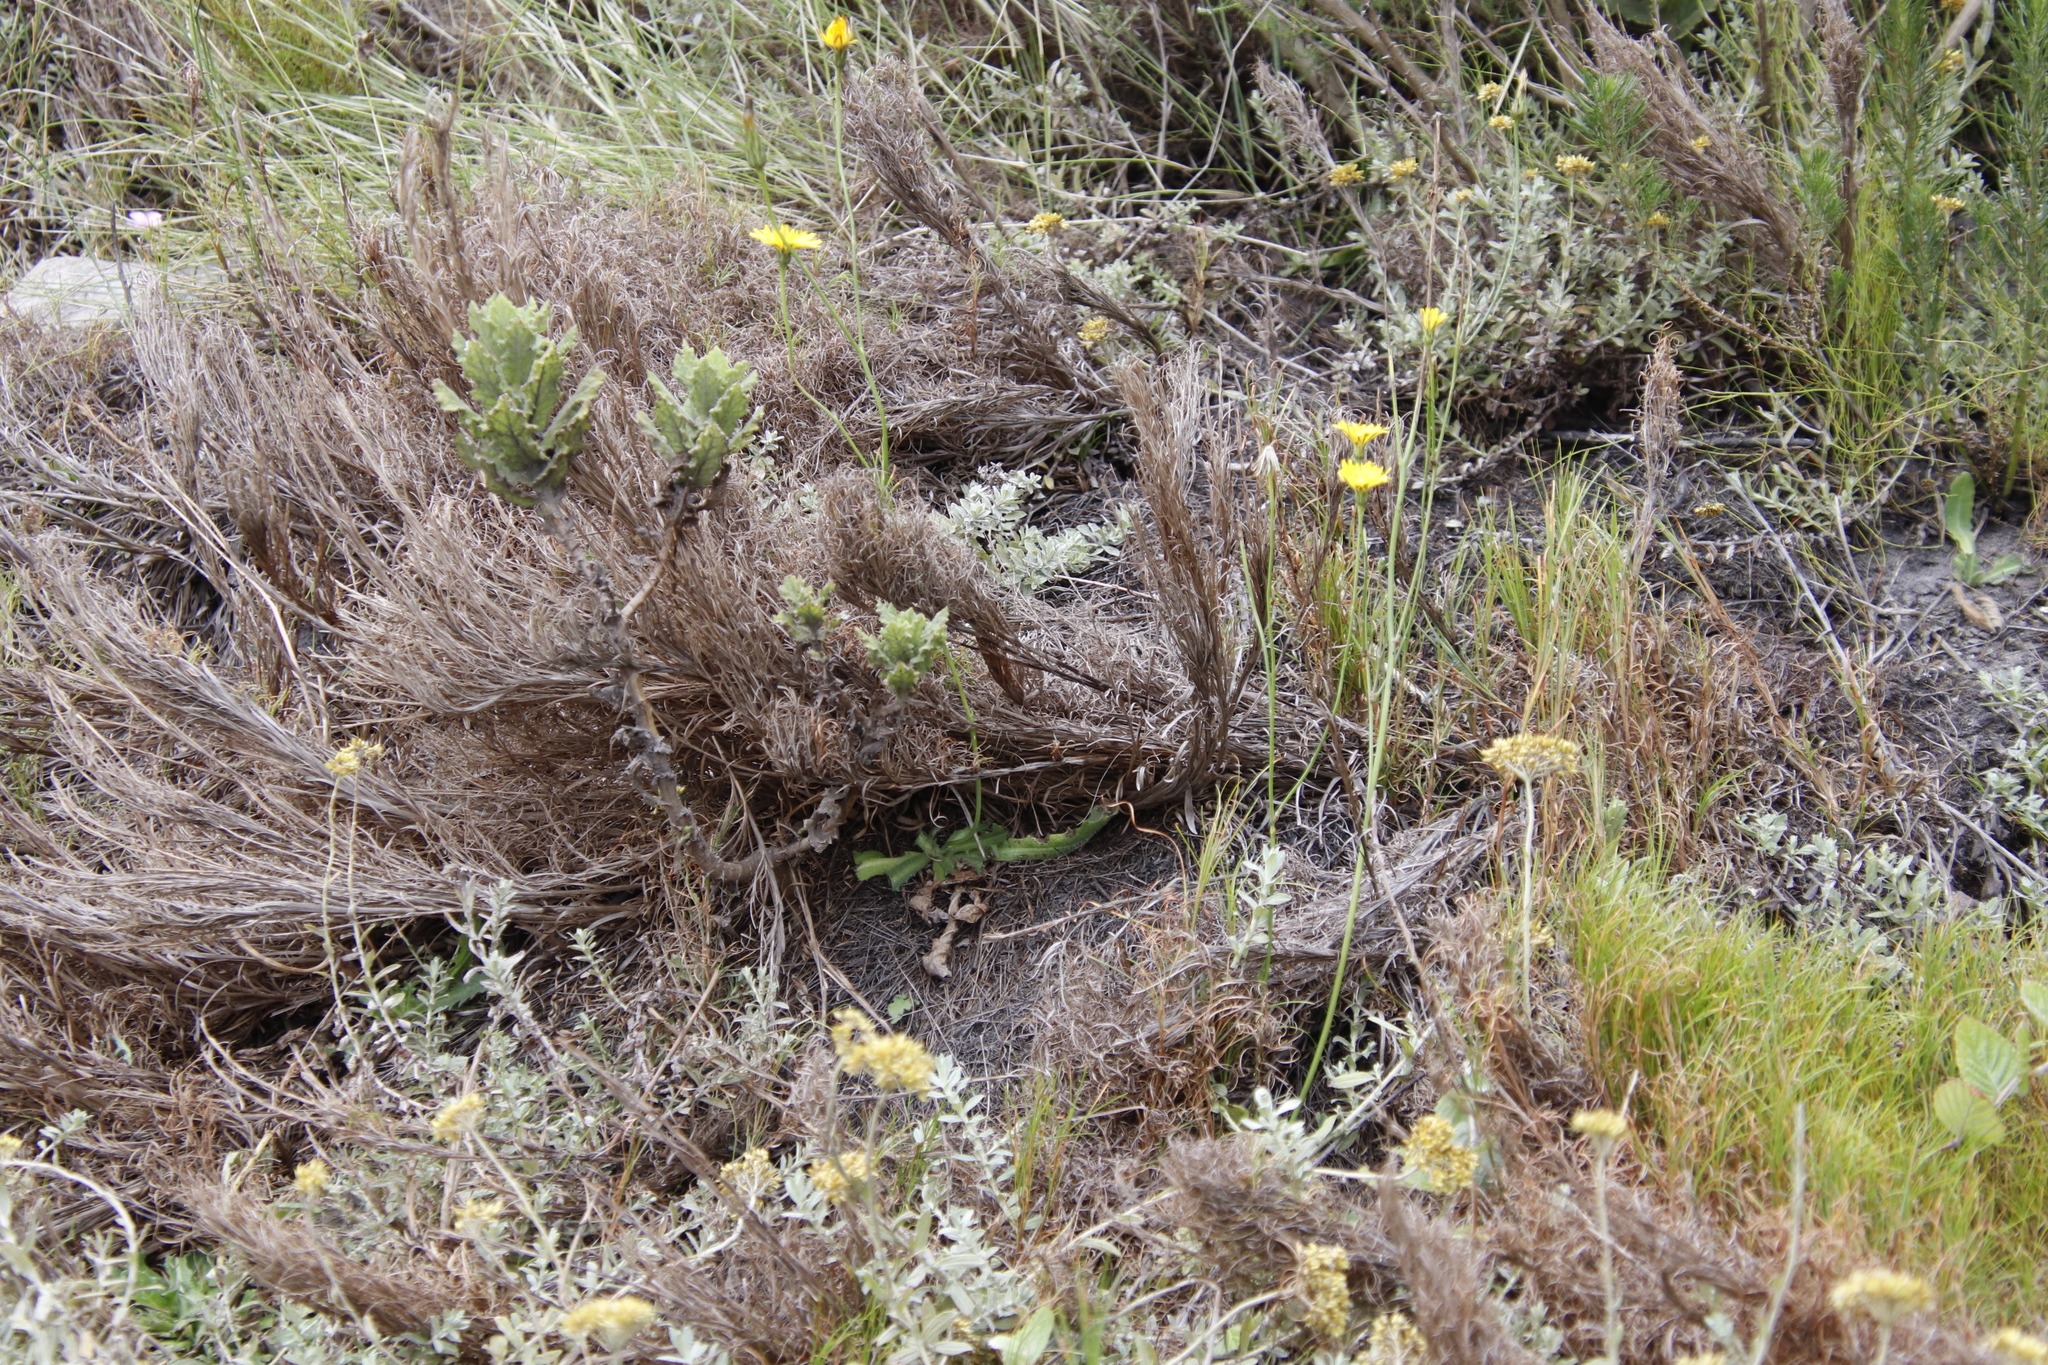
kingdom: Plantae
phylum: Tracheophyta
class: Magnoliopsida
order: Asterales
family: Asteraceae
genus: Senecio
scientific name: Senecio rigidus
